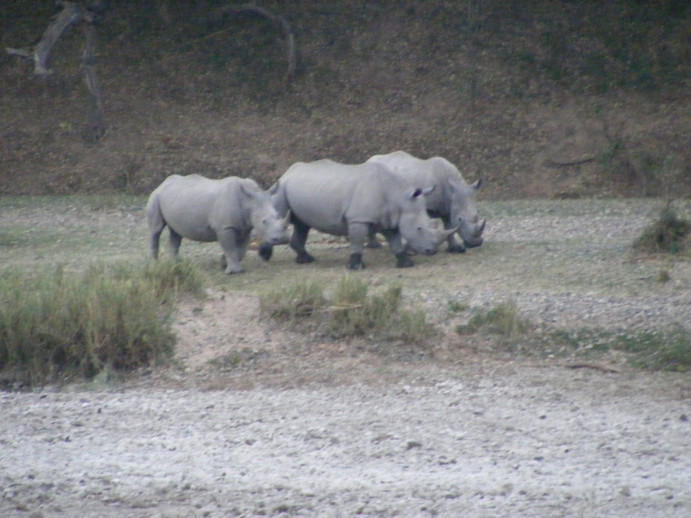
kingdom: Animalia
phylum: Chordata
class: Mammalia
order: Perissodactyla
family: Rhinocerotidae
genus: Ceratotherium
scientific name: Ceratotherium simum
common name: White rhinoceros
